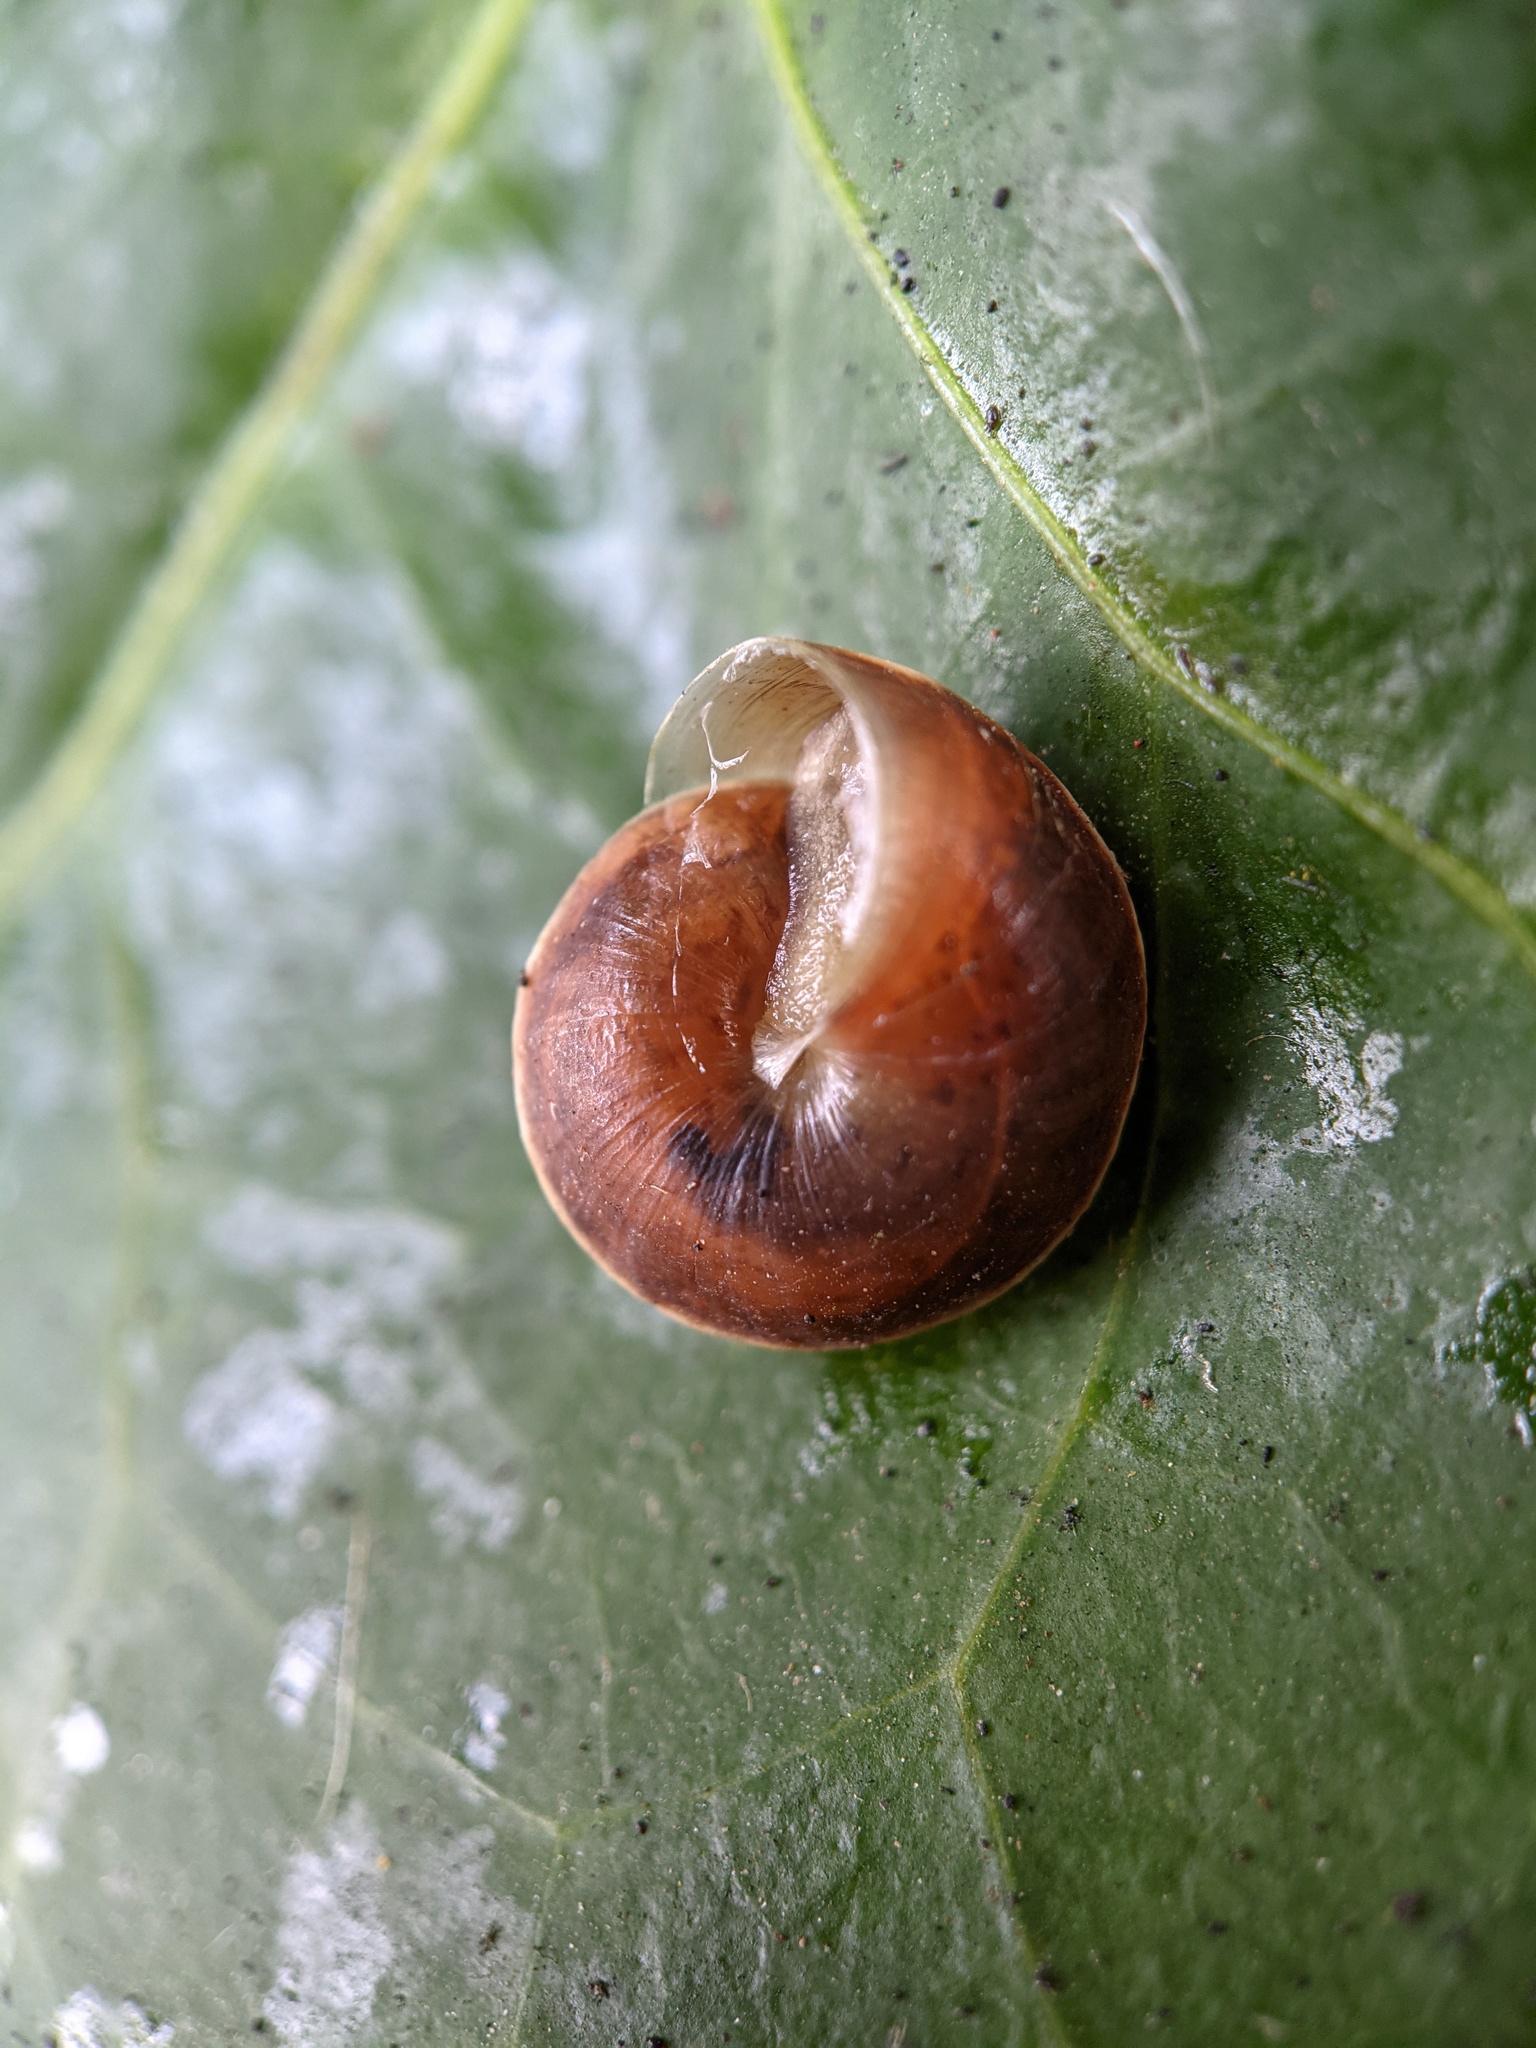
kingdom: Animalia
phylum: Mollusca
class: Gastropoda
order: Stylommatophora
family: Hygromiidae
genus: Hygromia
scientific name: Hygromia cinctella
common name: Girdled snail
